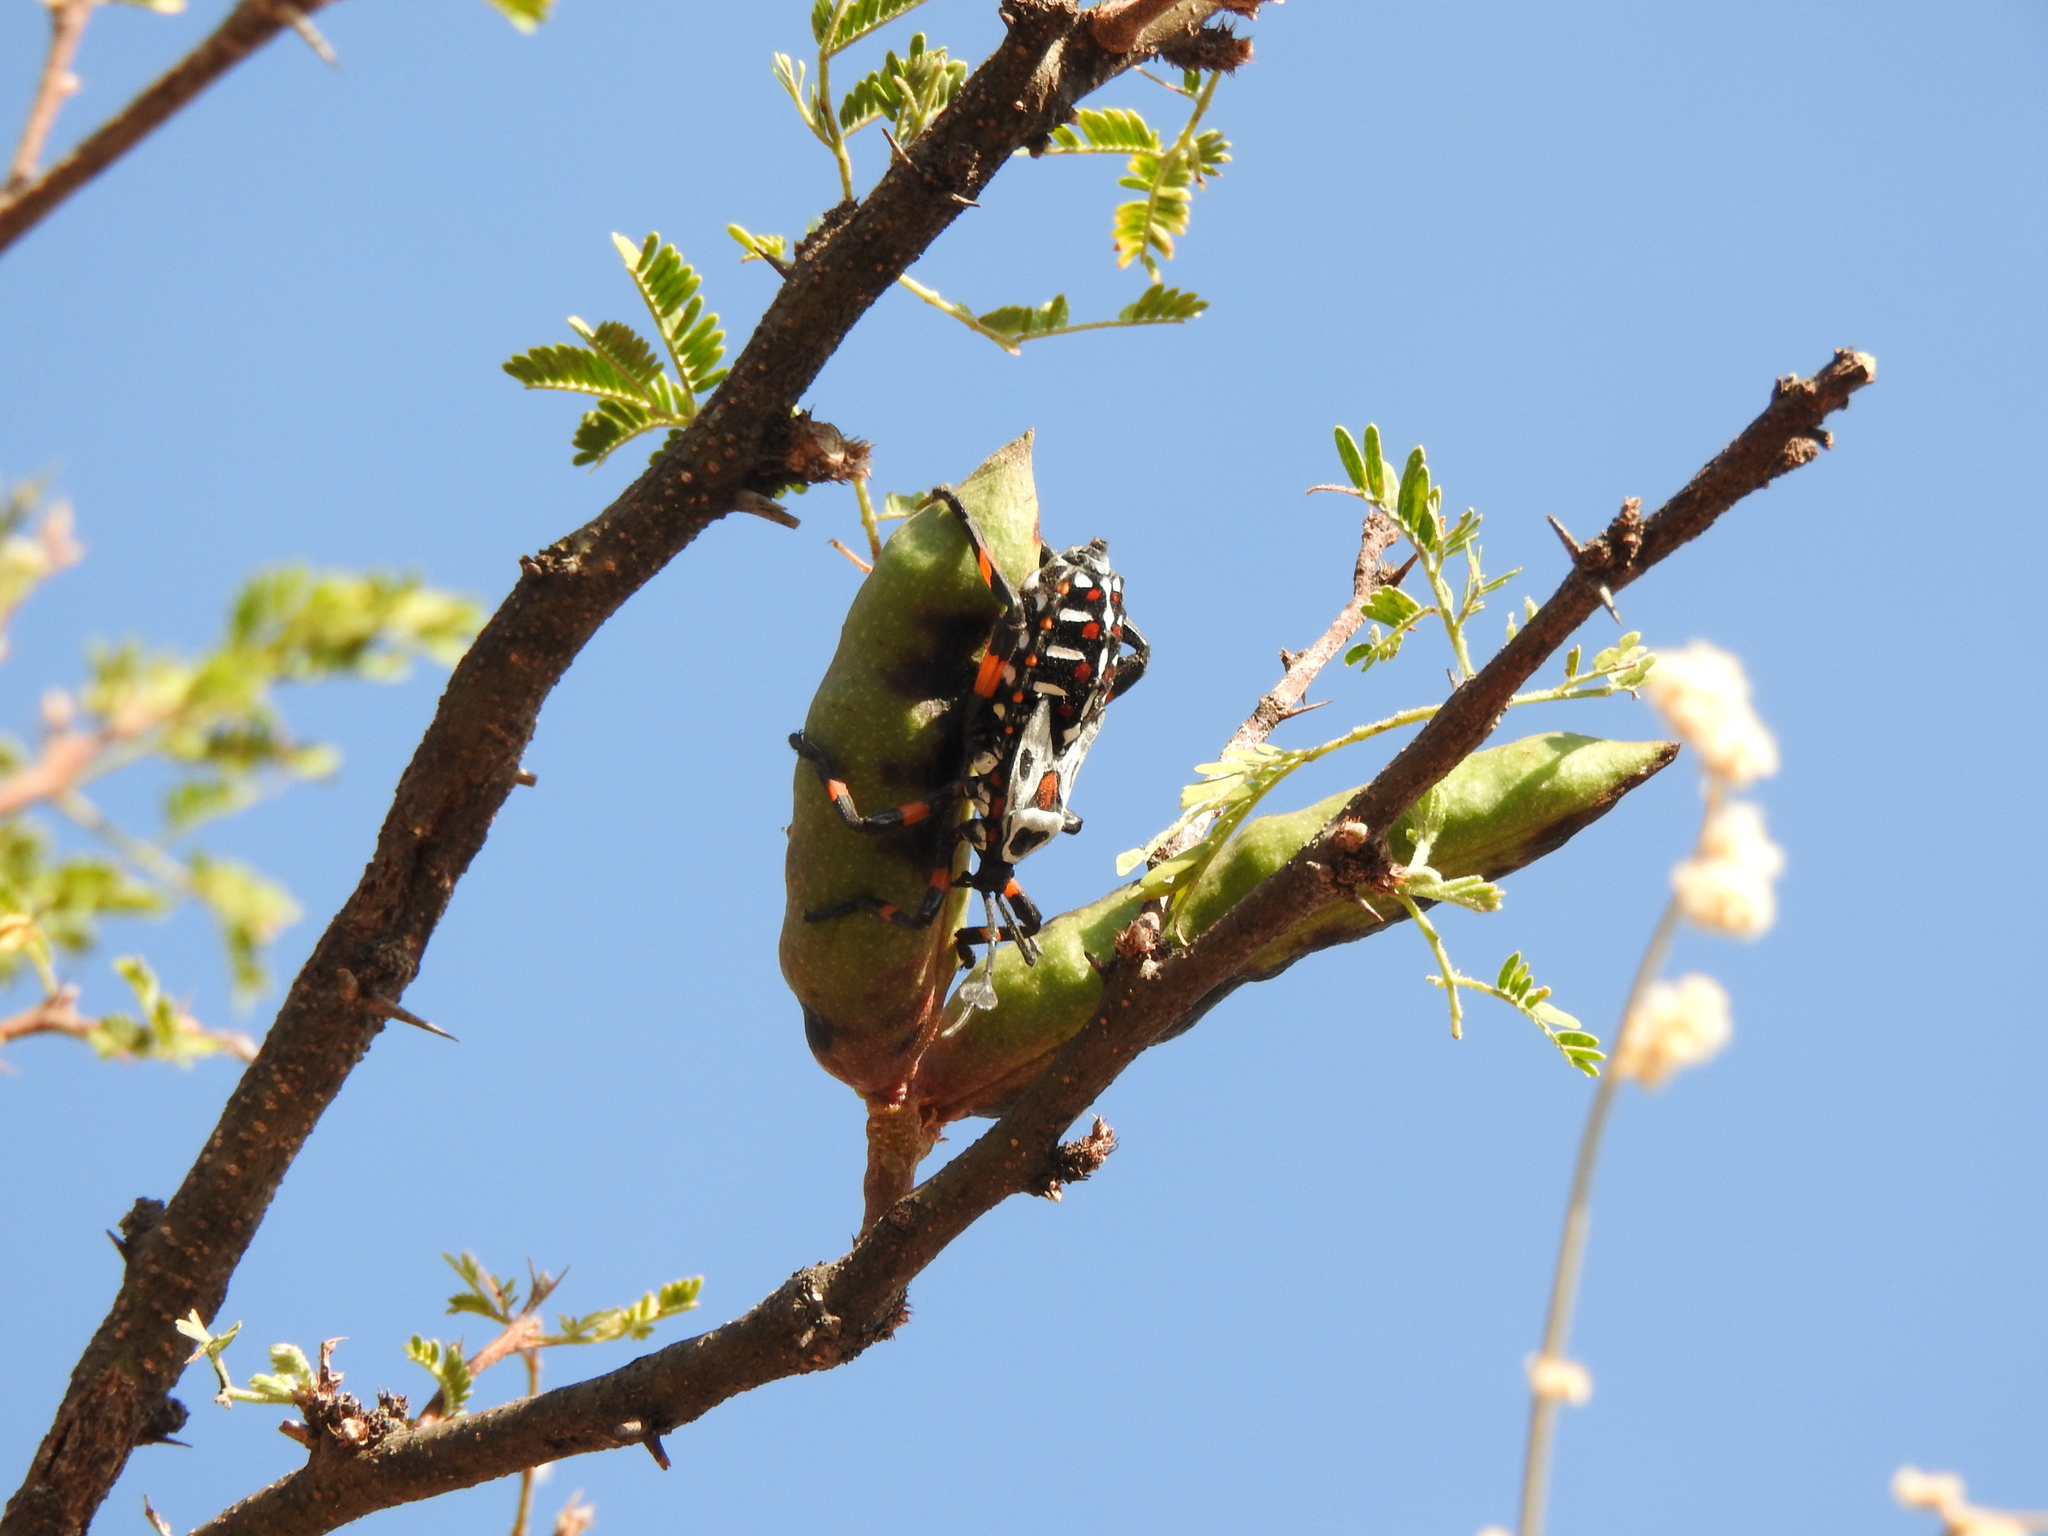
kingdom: Animalia
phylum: Arthropoda
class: Insecta
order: Hemiptera
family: Coreidae
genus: Thasus
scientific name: Thasus
